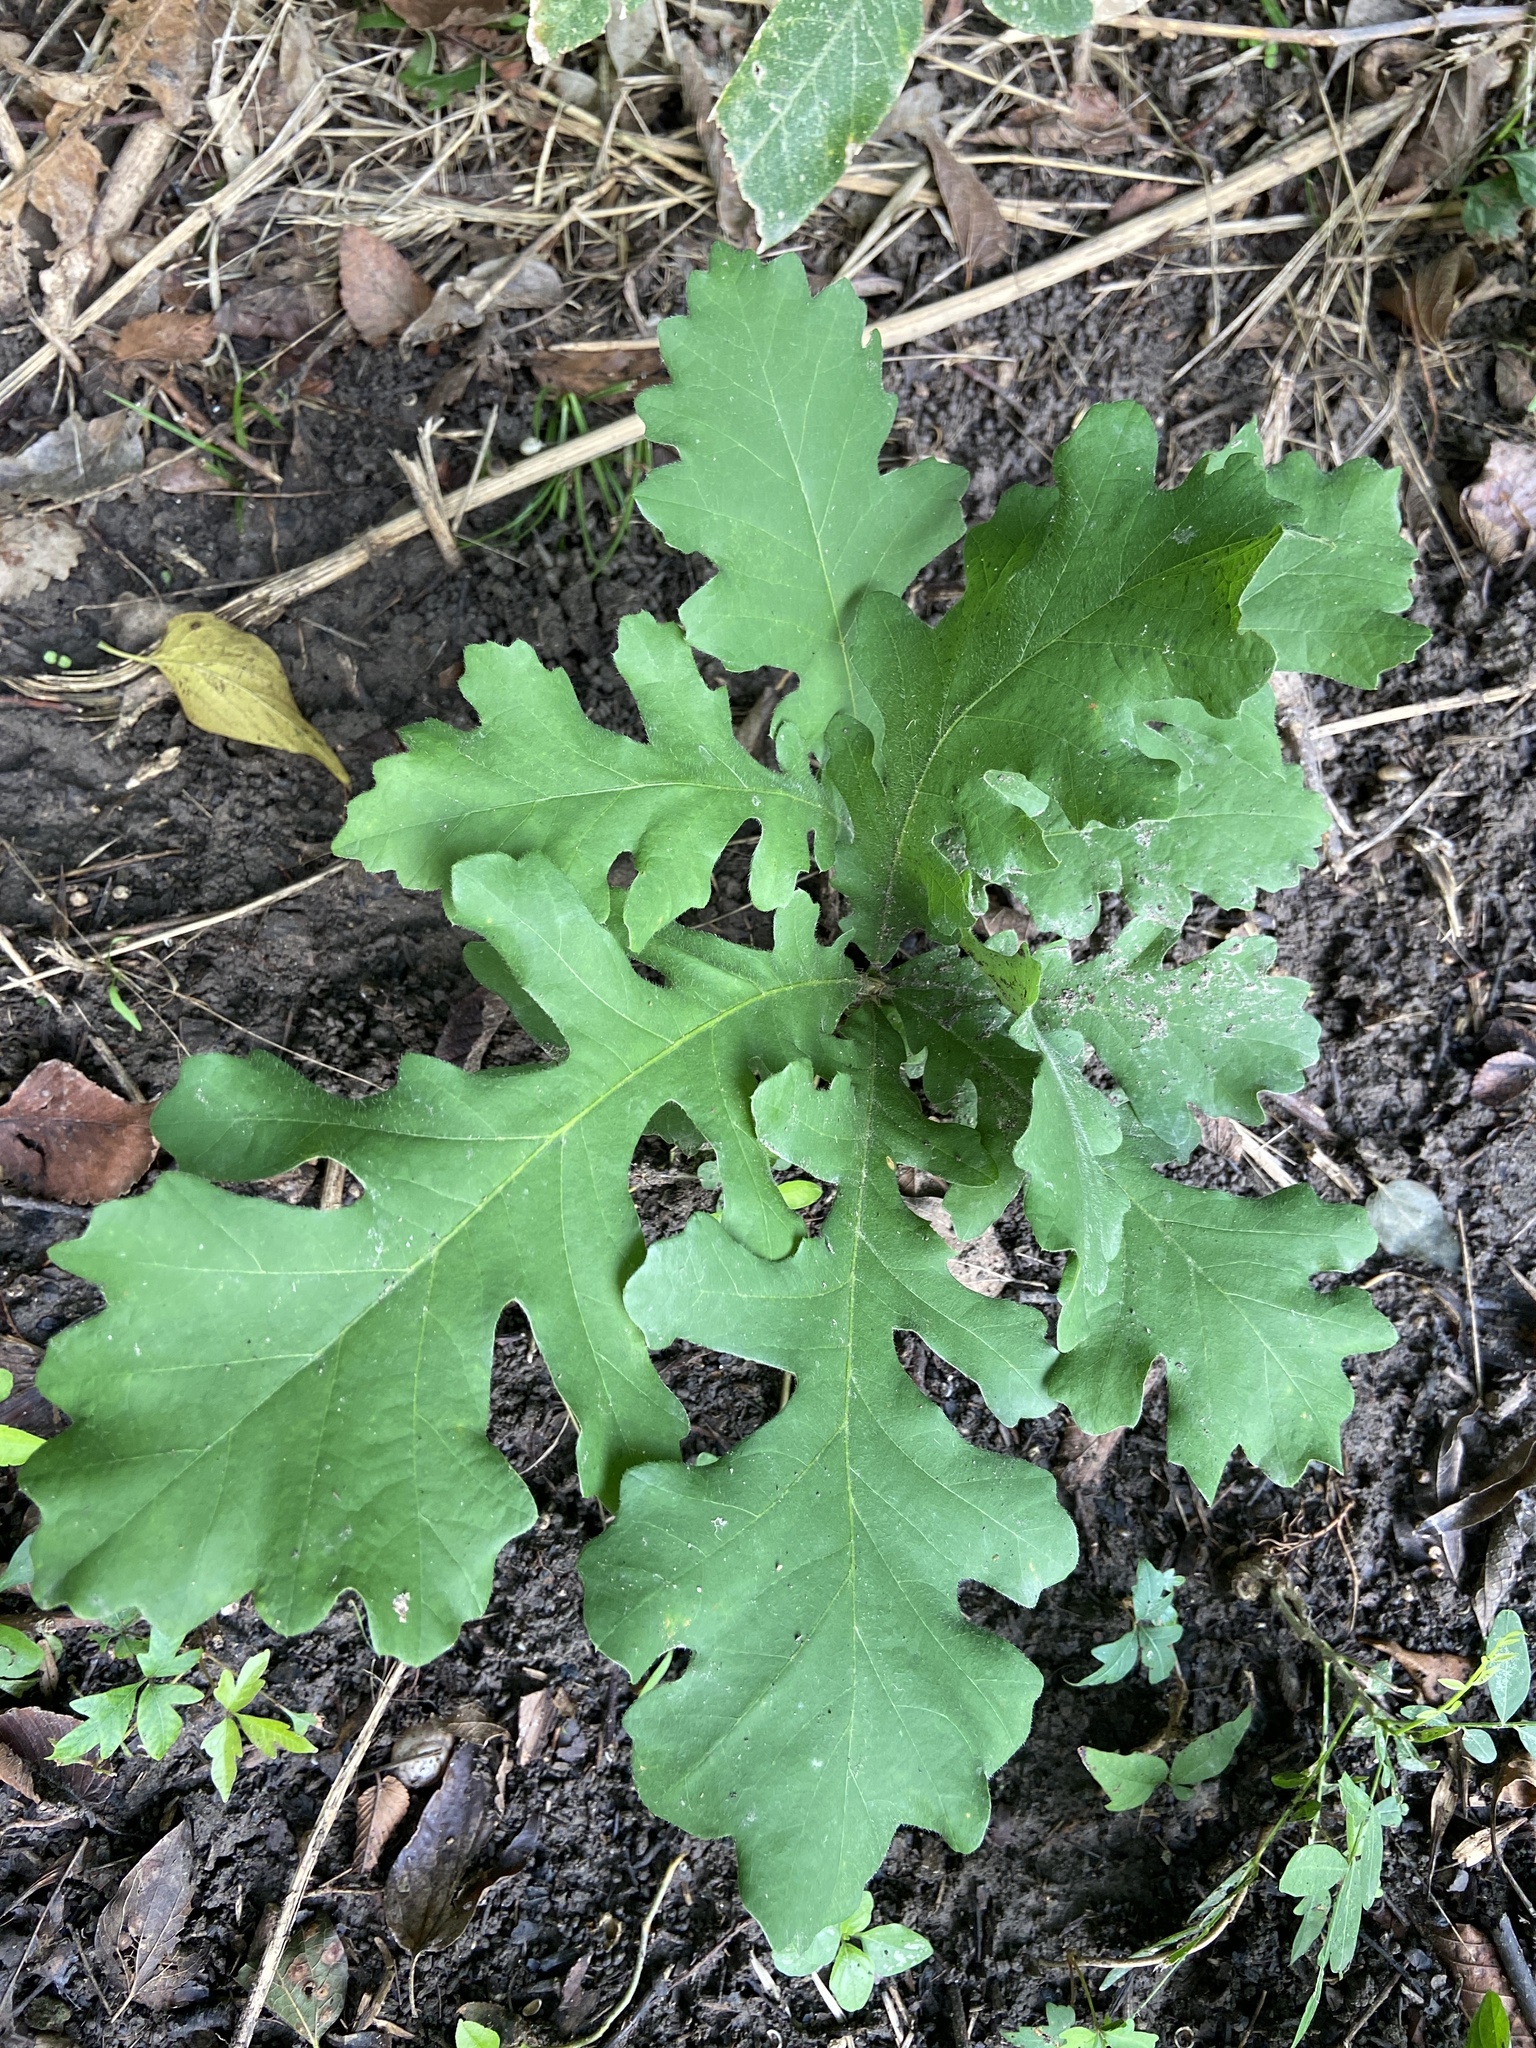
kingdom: Plantae
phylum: Tracheophyta
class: Magnoliopsida
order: Fagales
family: Fagaceae
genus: Quercus
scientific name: Quercus macrocarpa
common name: Bur oak
